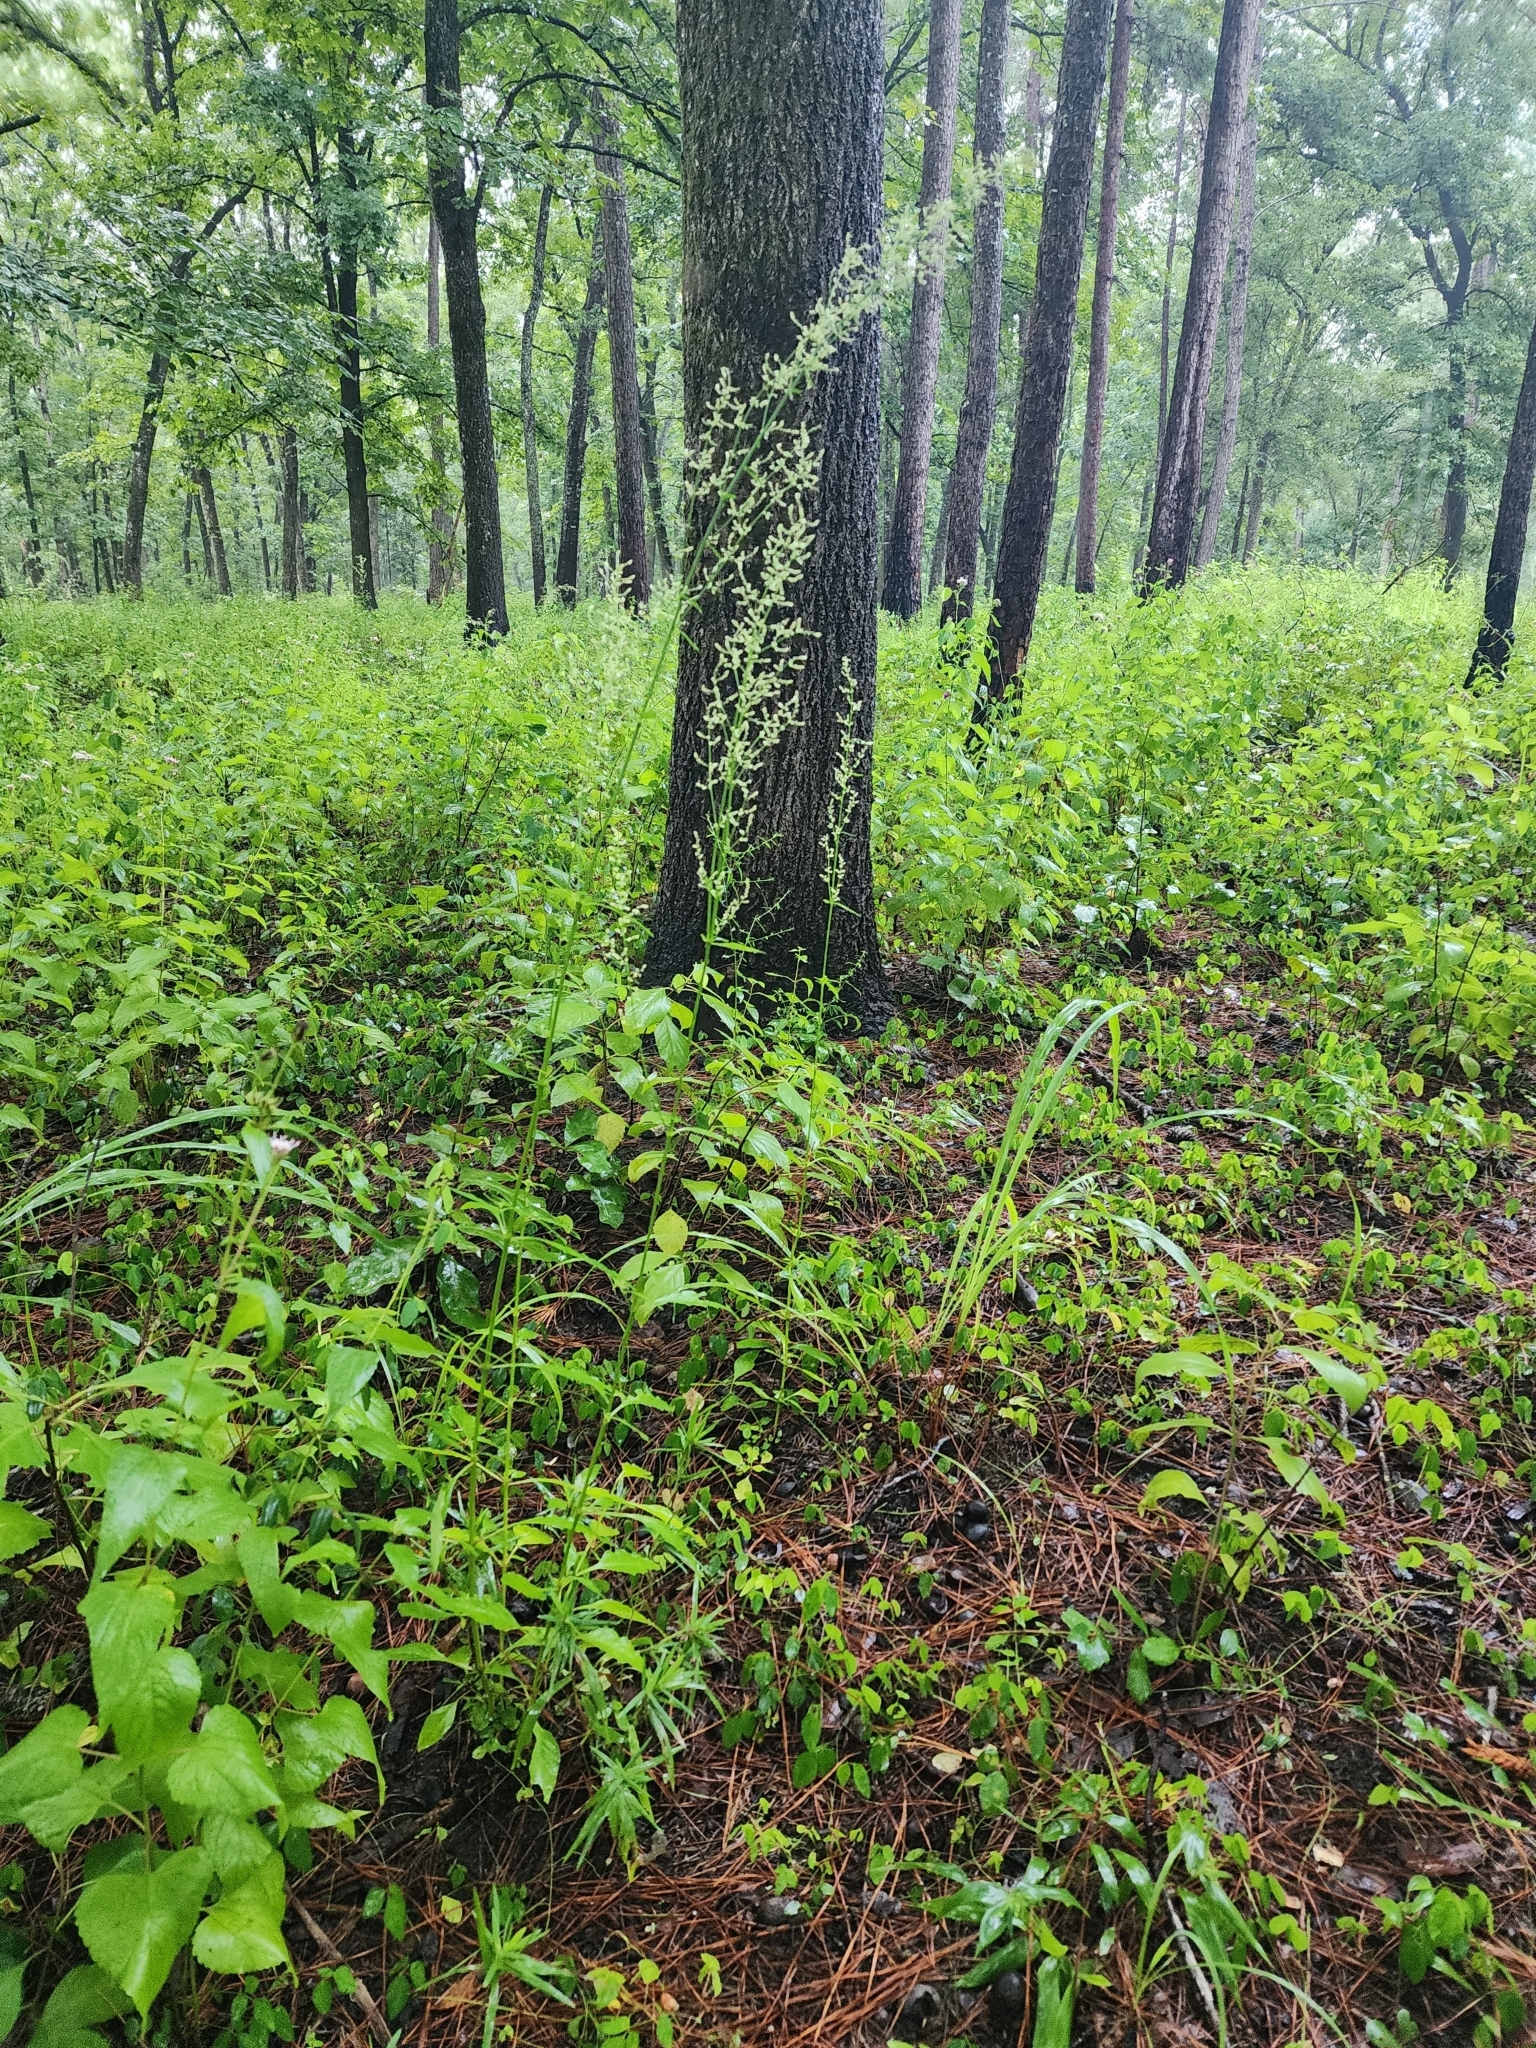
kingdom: Plantae
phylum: Tracheophyta
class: Magnoliopsida
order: Caryophyllales
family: Amaranthaceae
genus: Iresine
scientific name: Iresine diffusa
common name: Juba's-bush
